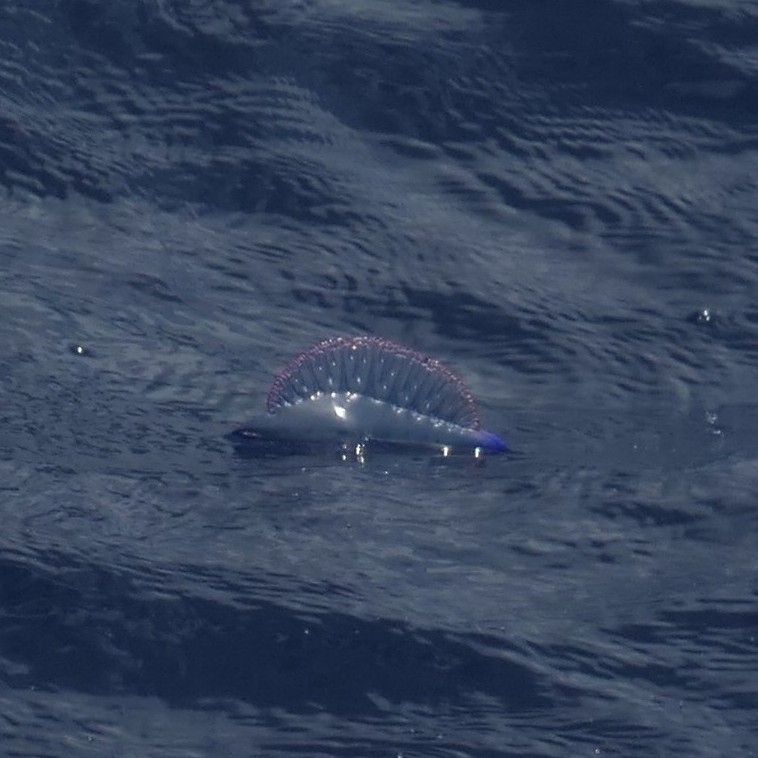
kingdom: Animalia
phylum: Cnidaria
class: Hydrozoa
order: Siphonophorae
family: Physaliidae
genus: Physalia
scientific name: Physalia physalis
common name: Portuguese man-of-war
